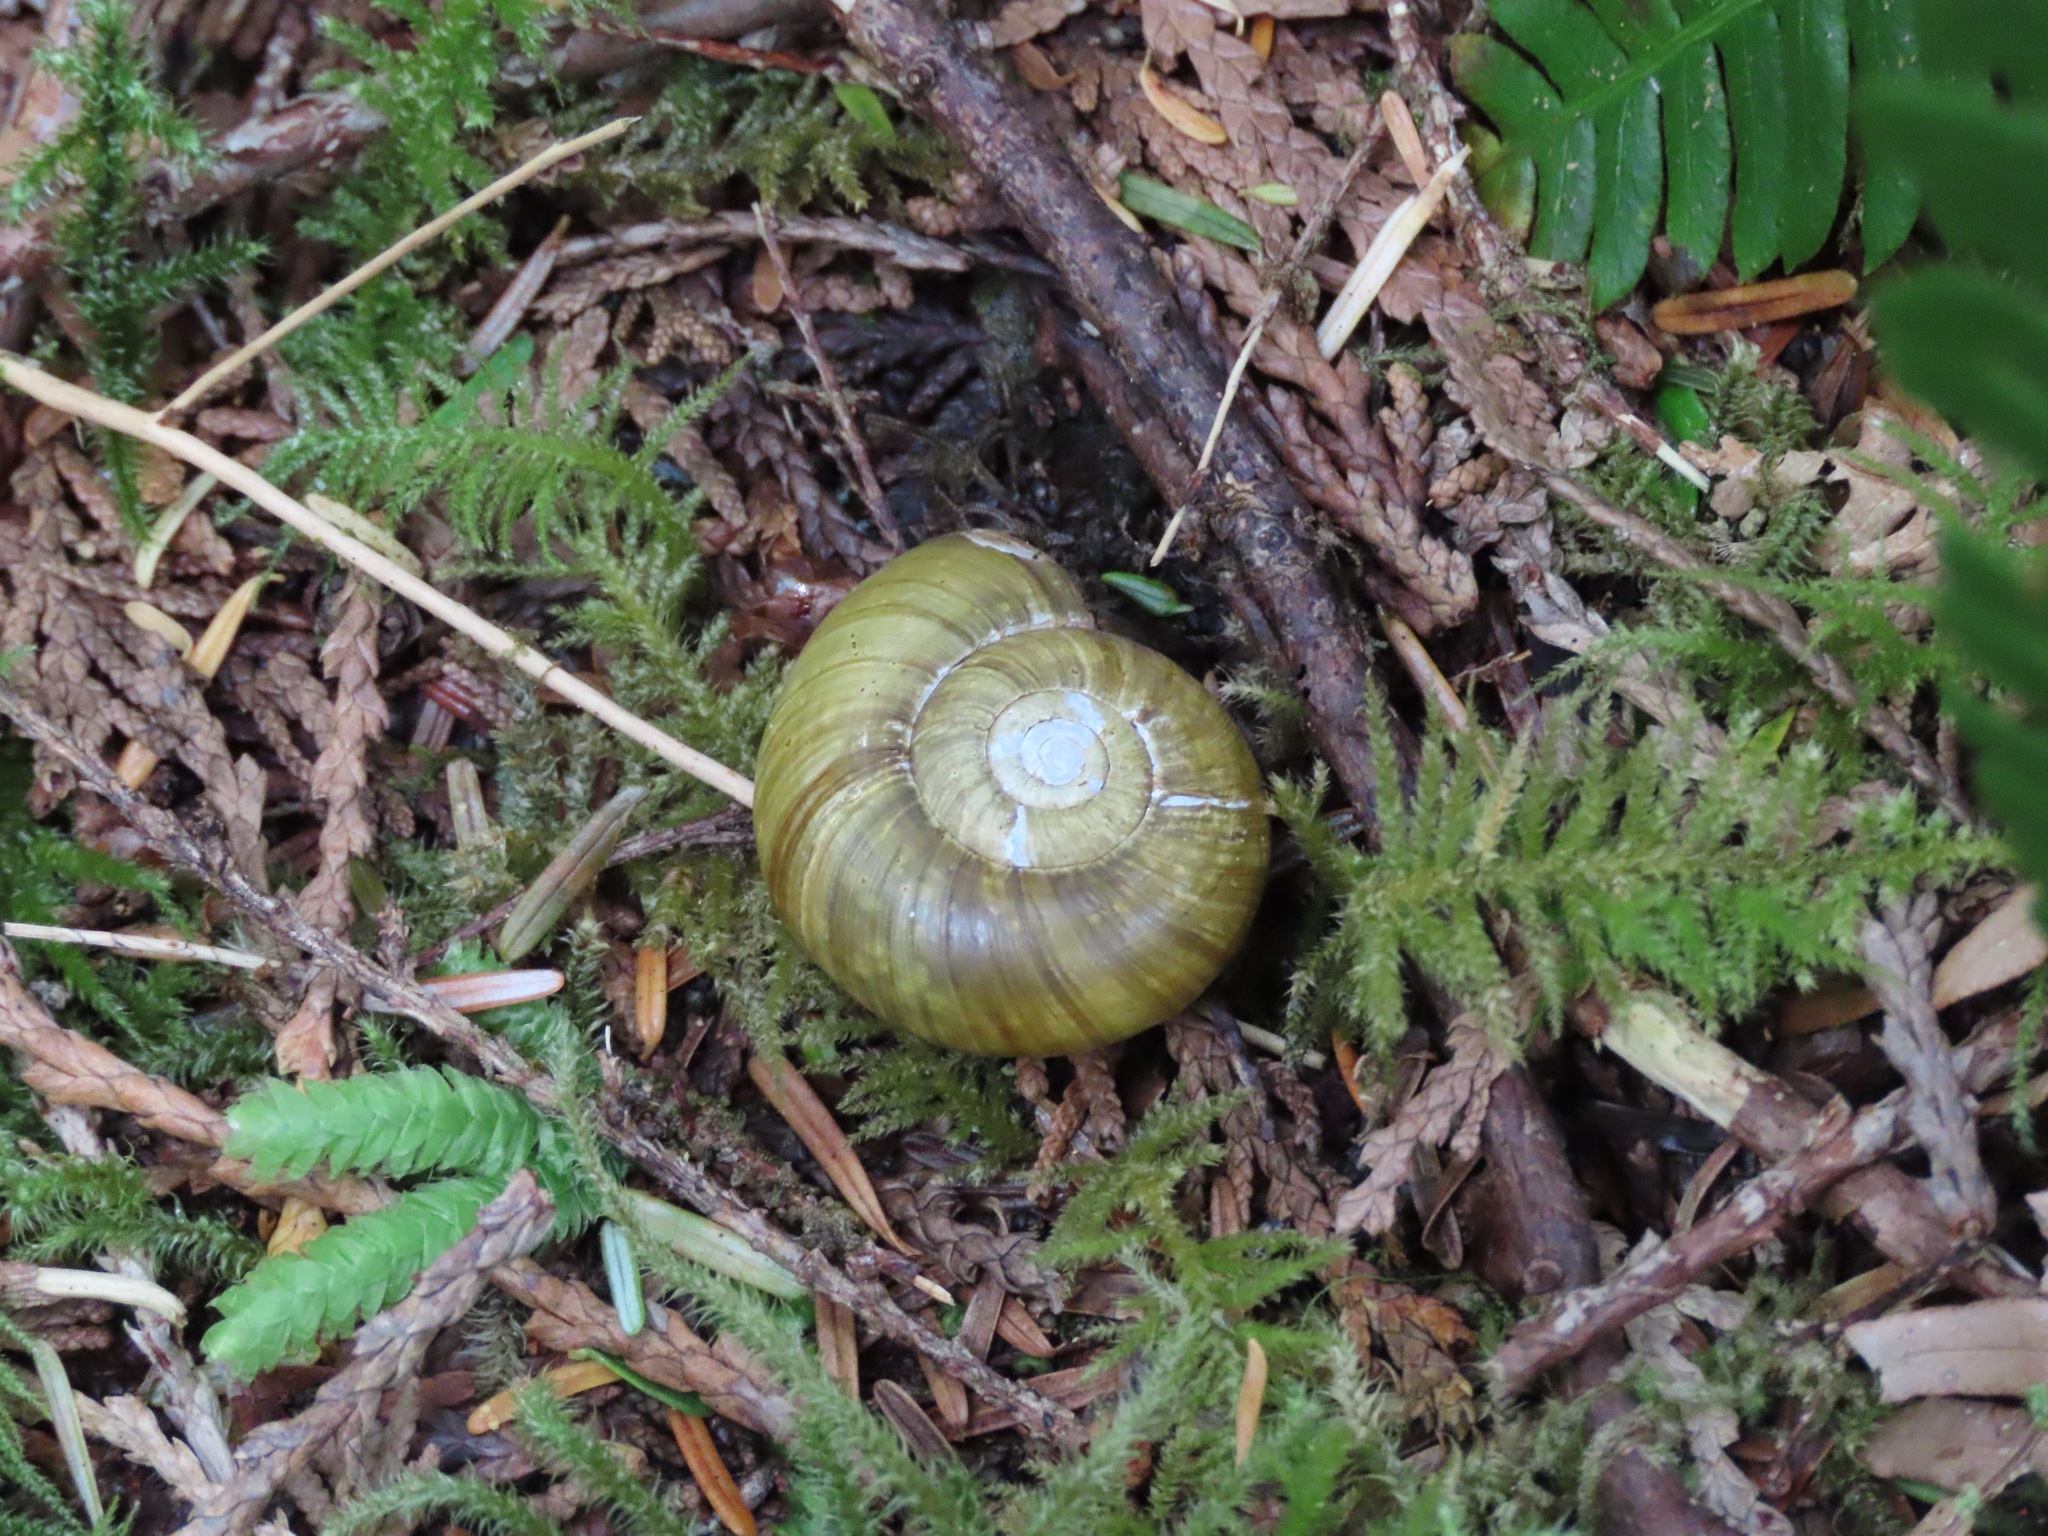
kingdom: Animalia
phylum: Mollusca
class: Gastropoda
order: Stylommatophora
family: Haplotrematidae
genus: Haplotrema
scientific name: Haplotrema vancouverense
